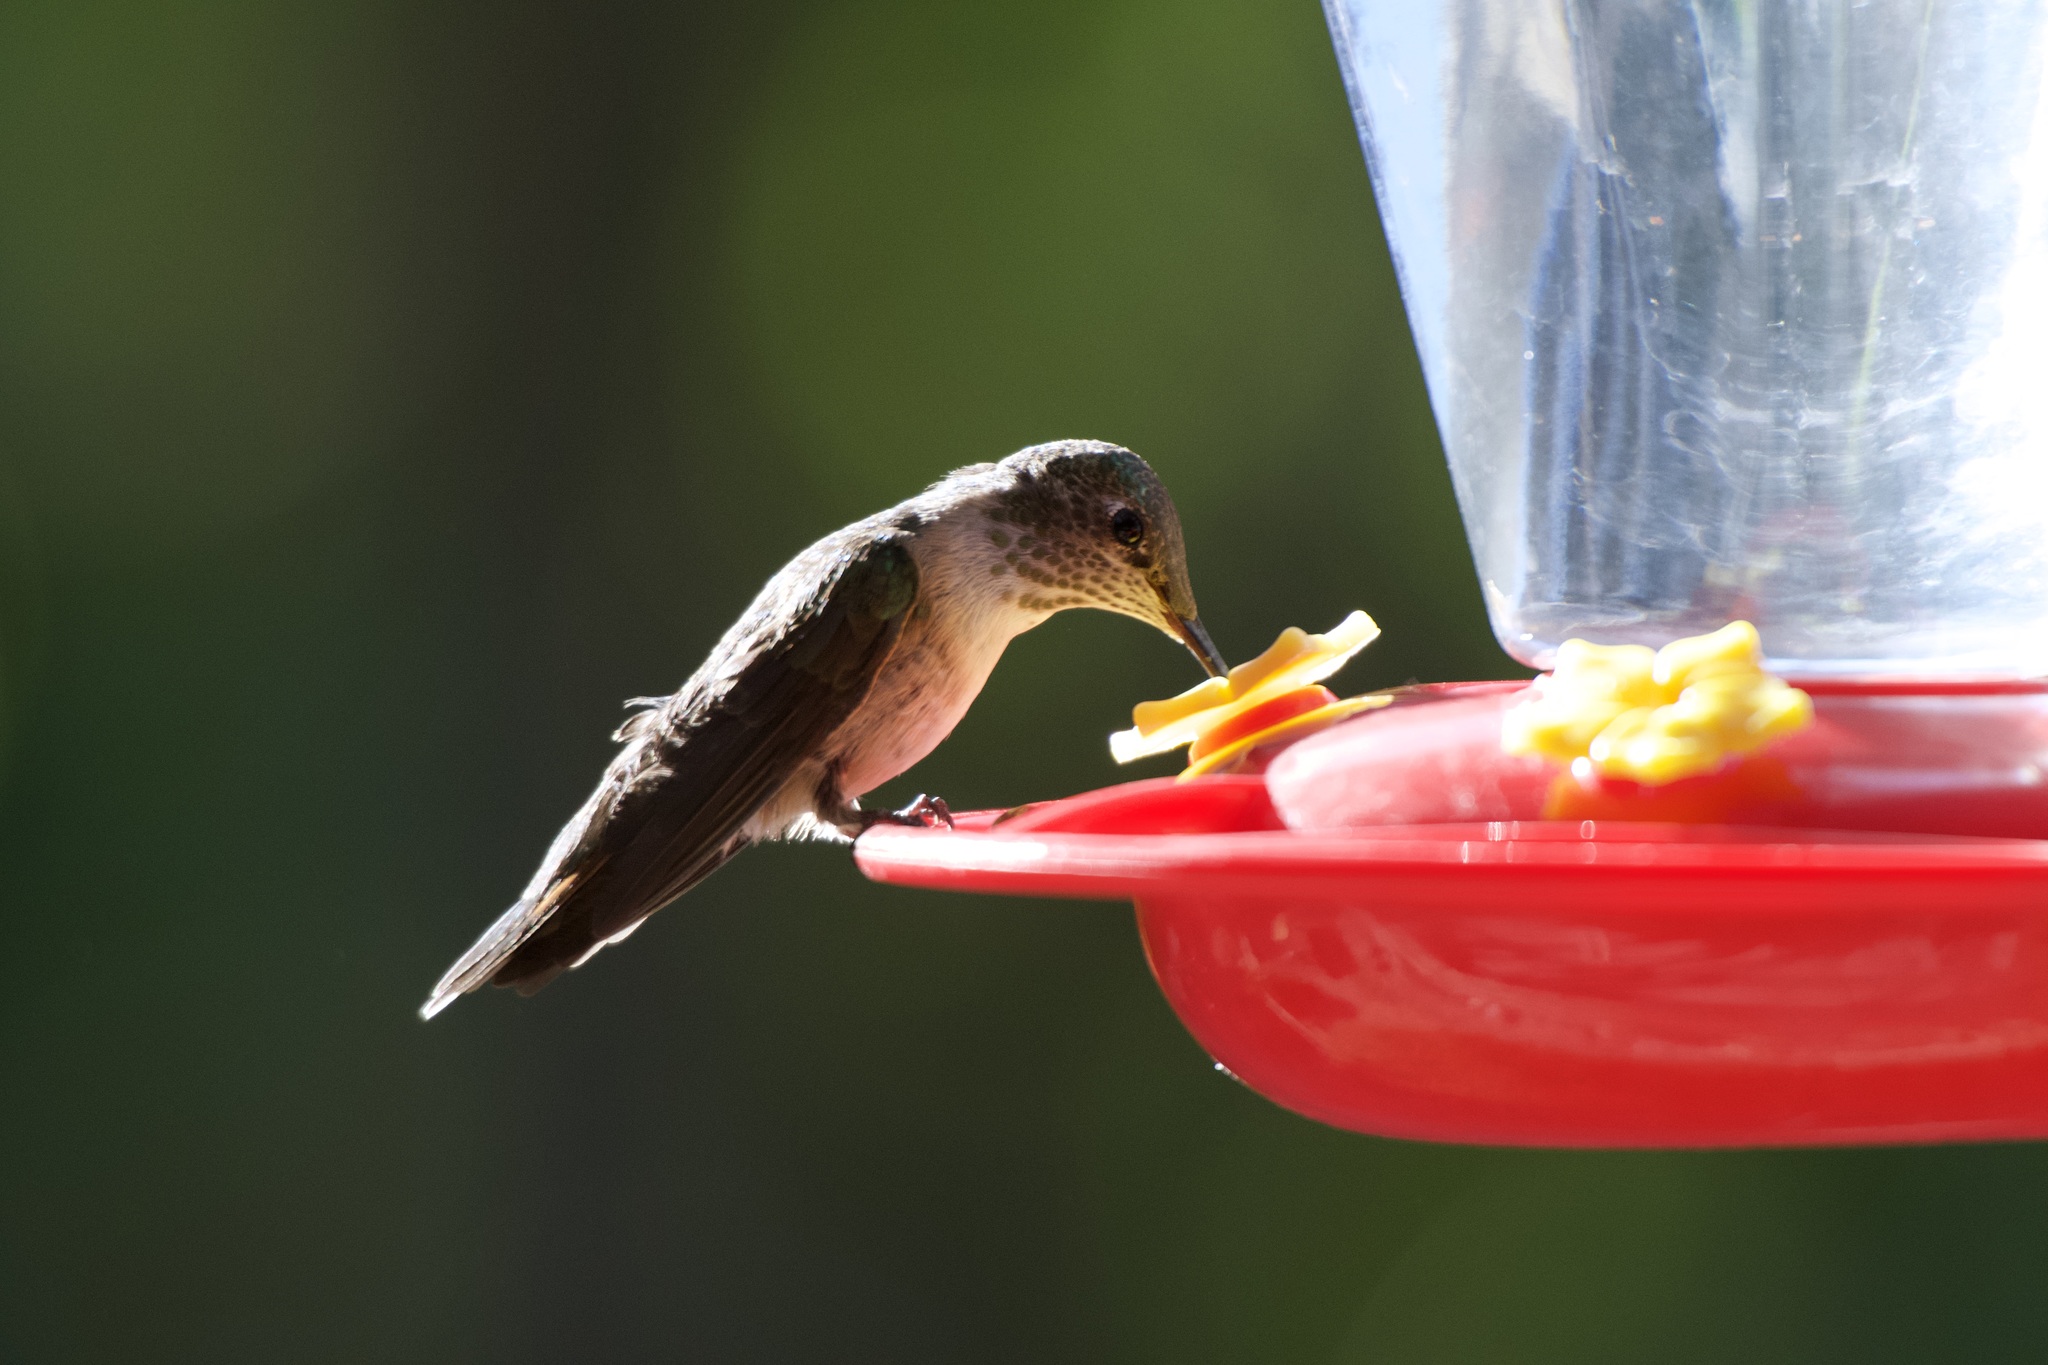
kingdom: Animalia
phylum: Chordata
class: Aves
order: Apodiformes
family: Trochilidae
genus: Selasphorus
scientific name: Selasphorus platycercus
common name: Broad-tailed hummingbird
